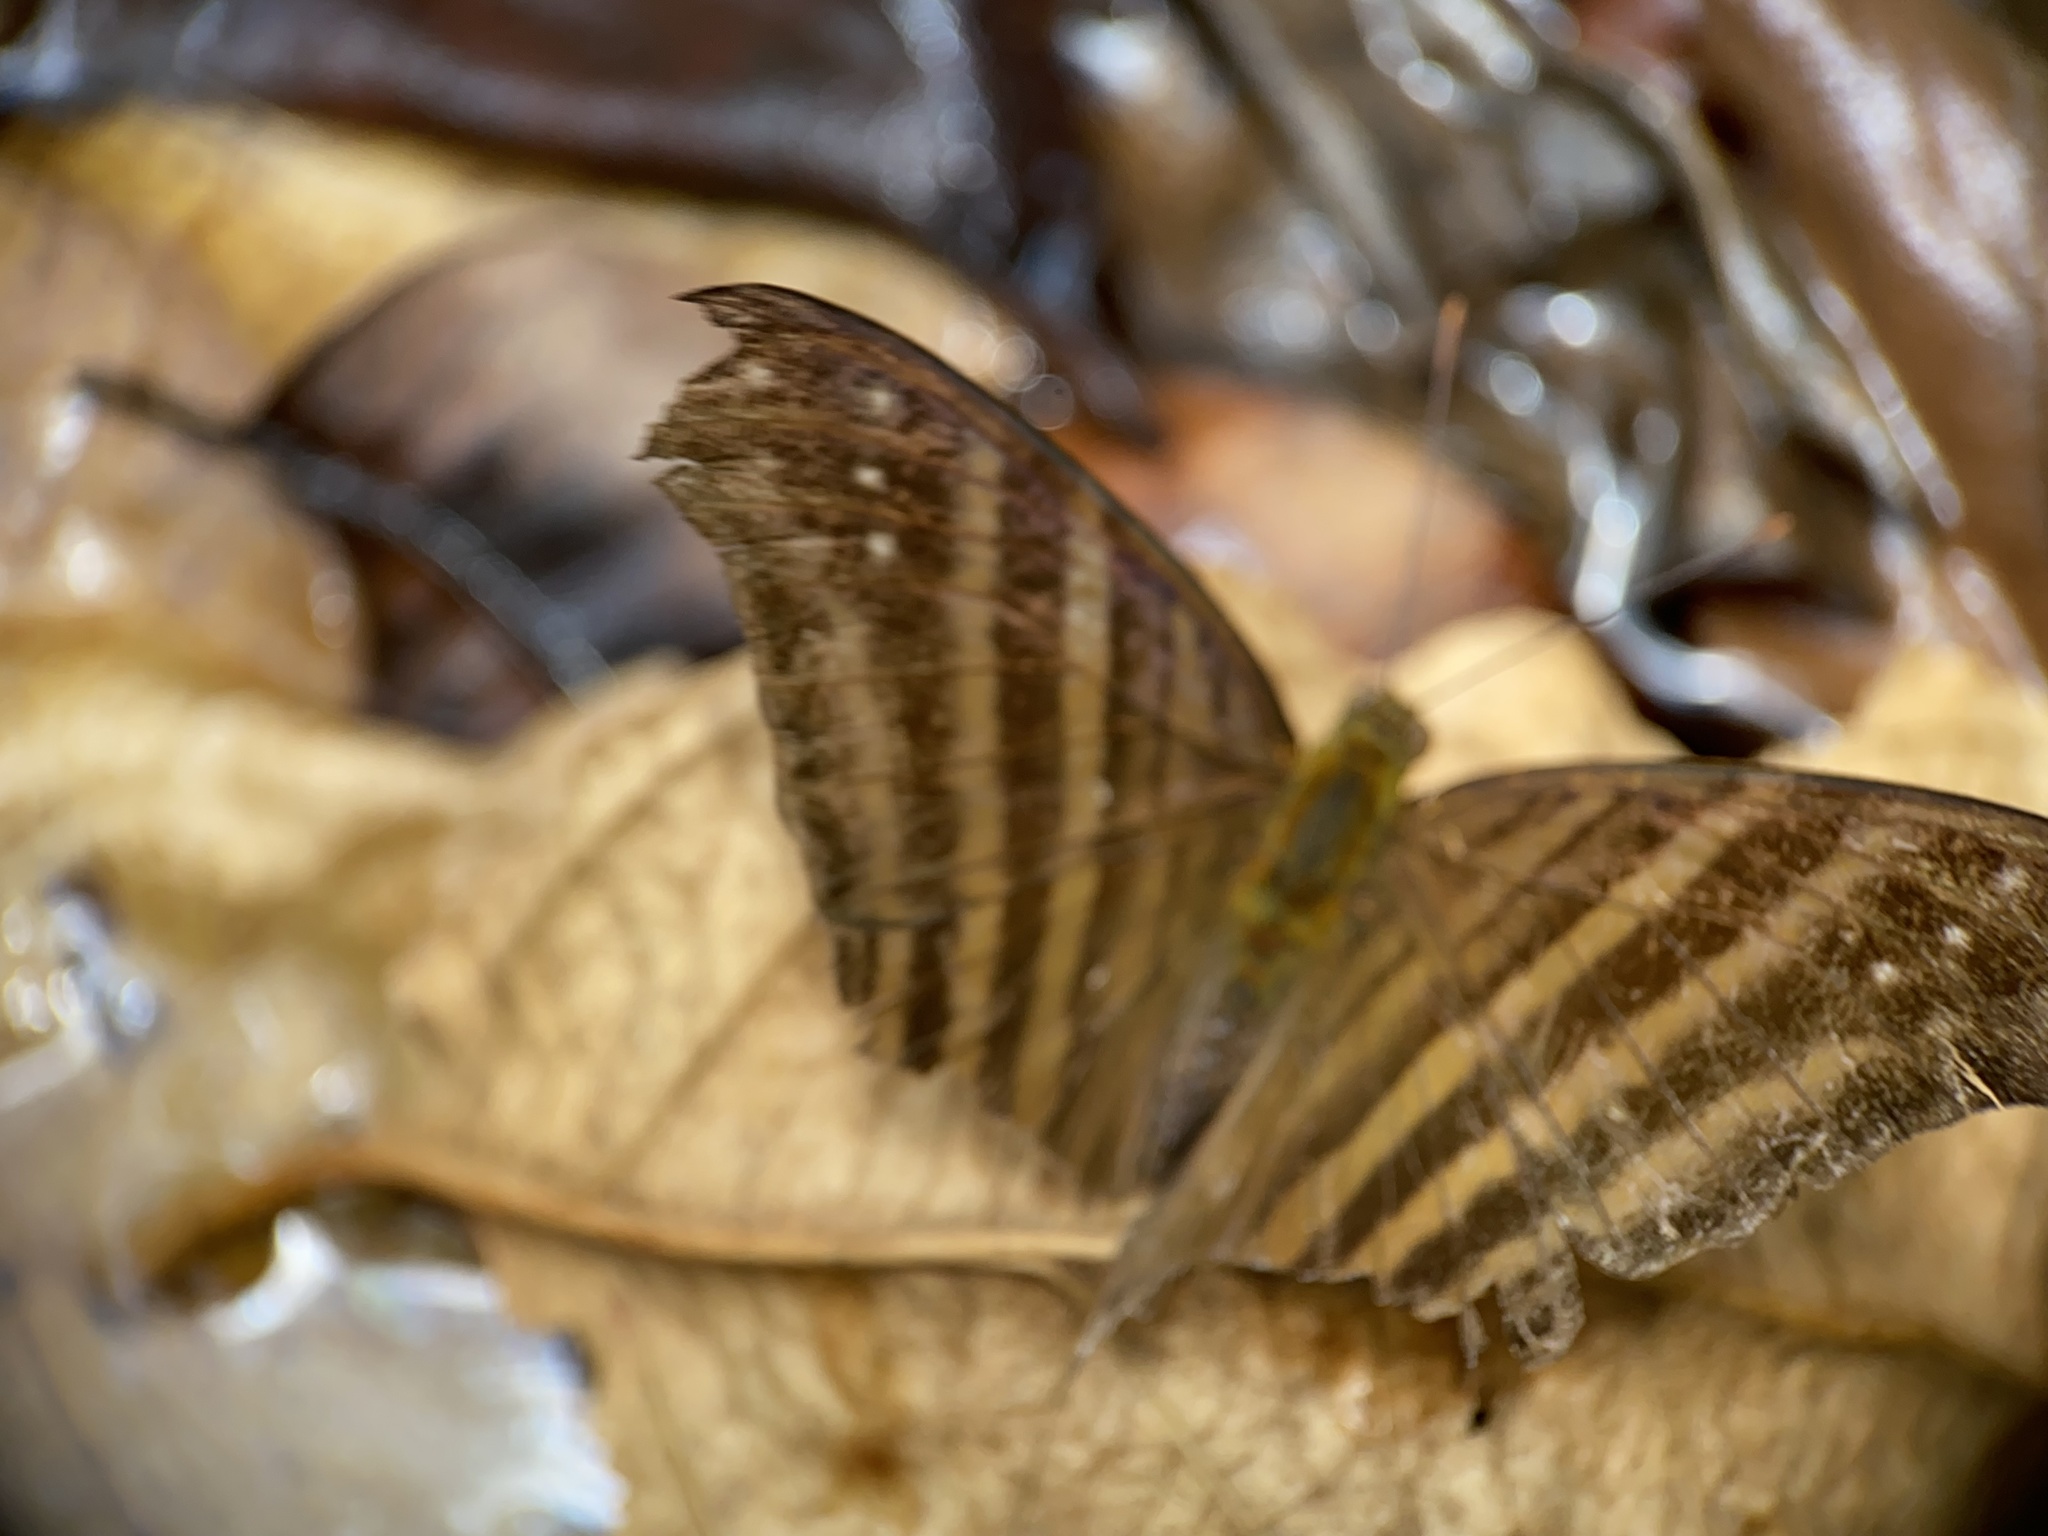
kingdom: Animalia
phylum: Arthropoda
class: Insecta
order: Lepidoptera
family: Nymphalidae
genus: Marpesia
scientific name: Marpesia chiron
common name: Many-banded daggerwing
